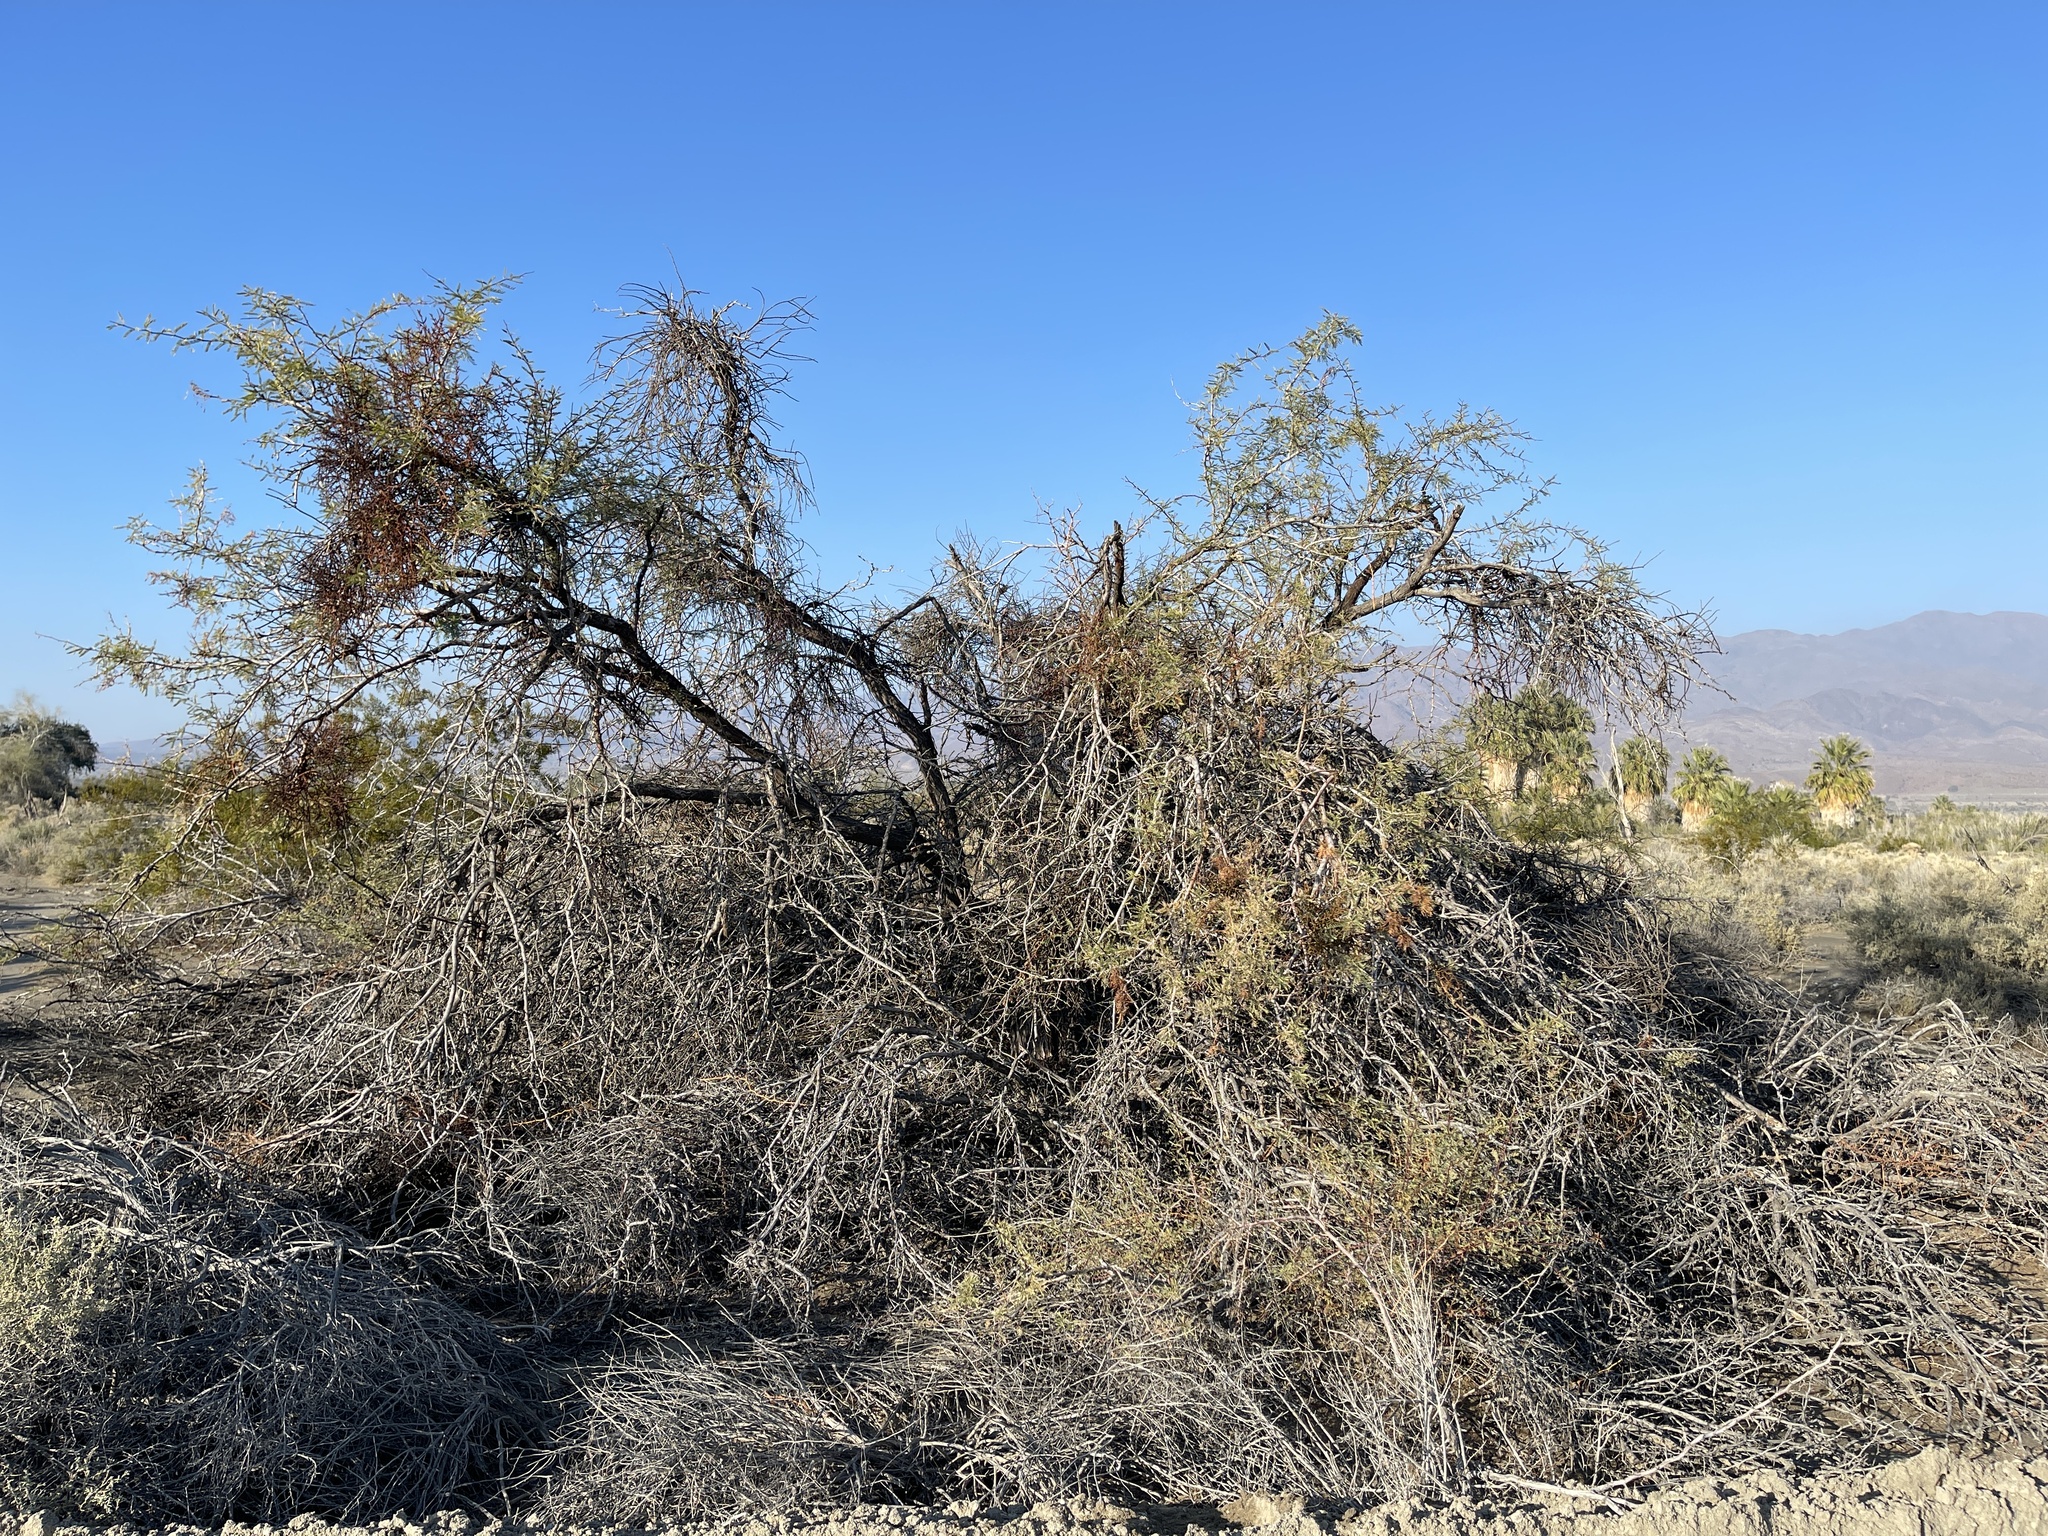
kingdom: Plantae
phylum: Tracheophyta
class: Magnoliopsida
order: Fabales
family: Fabaceae
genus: Prosopis
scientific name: Prosopis pubescens
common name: Screw-bean
